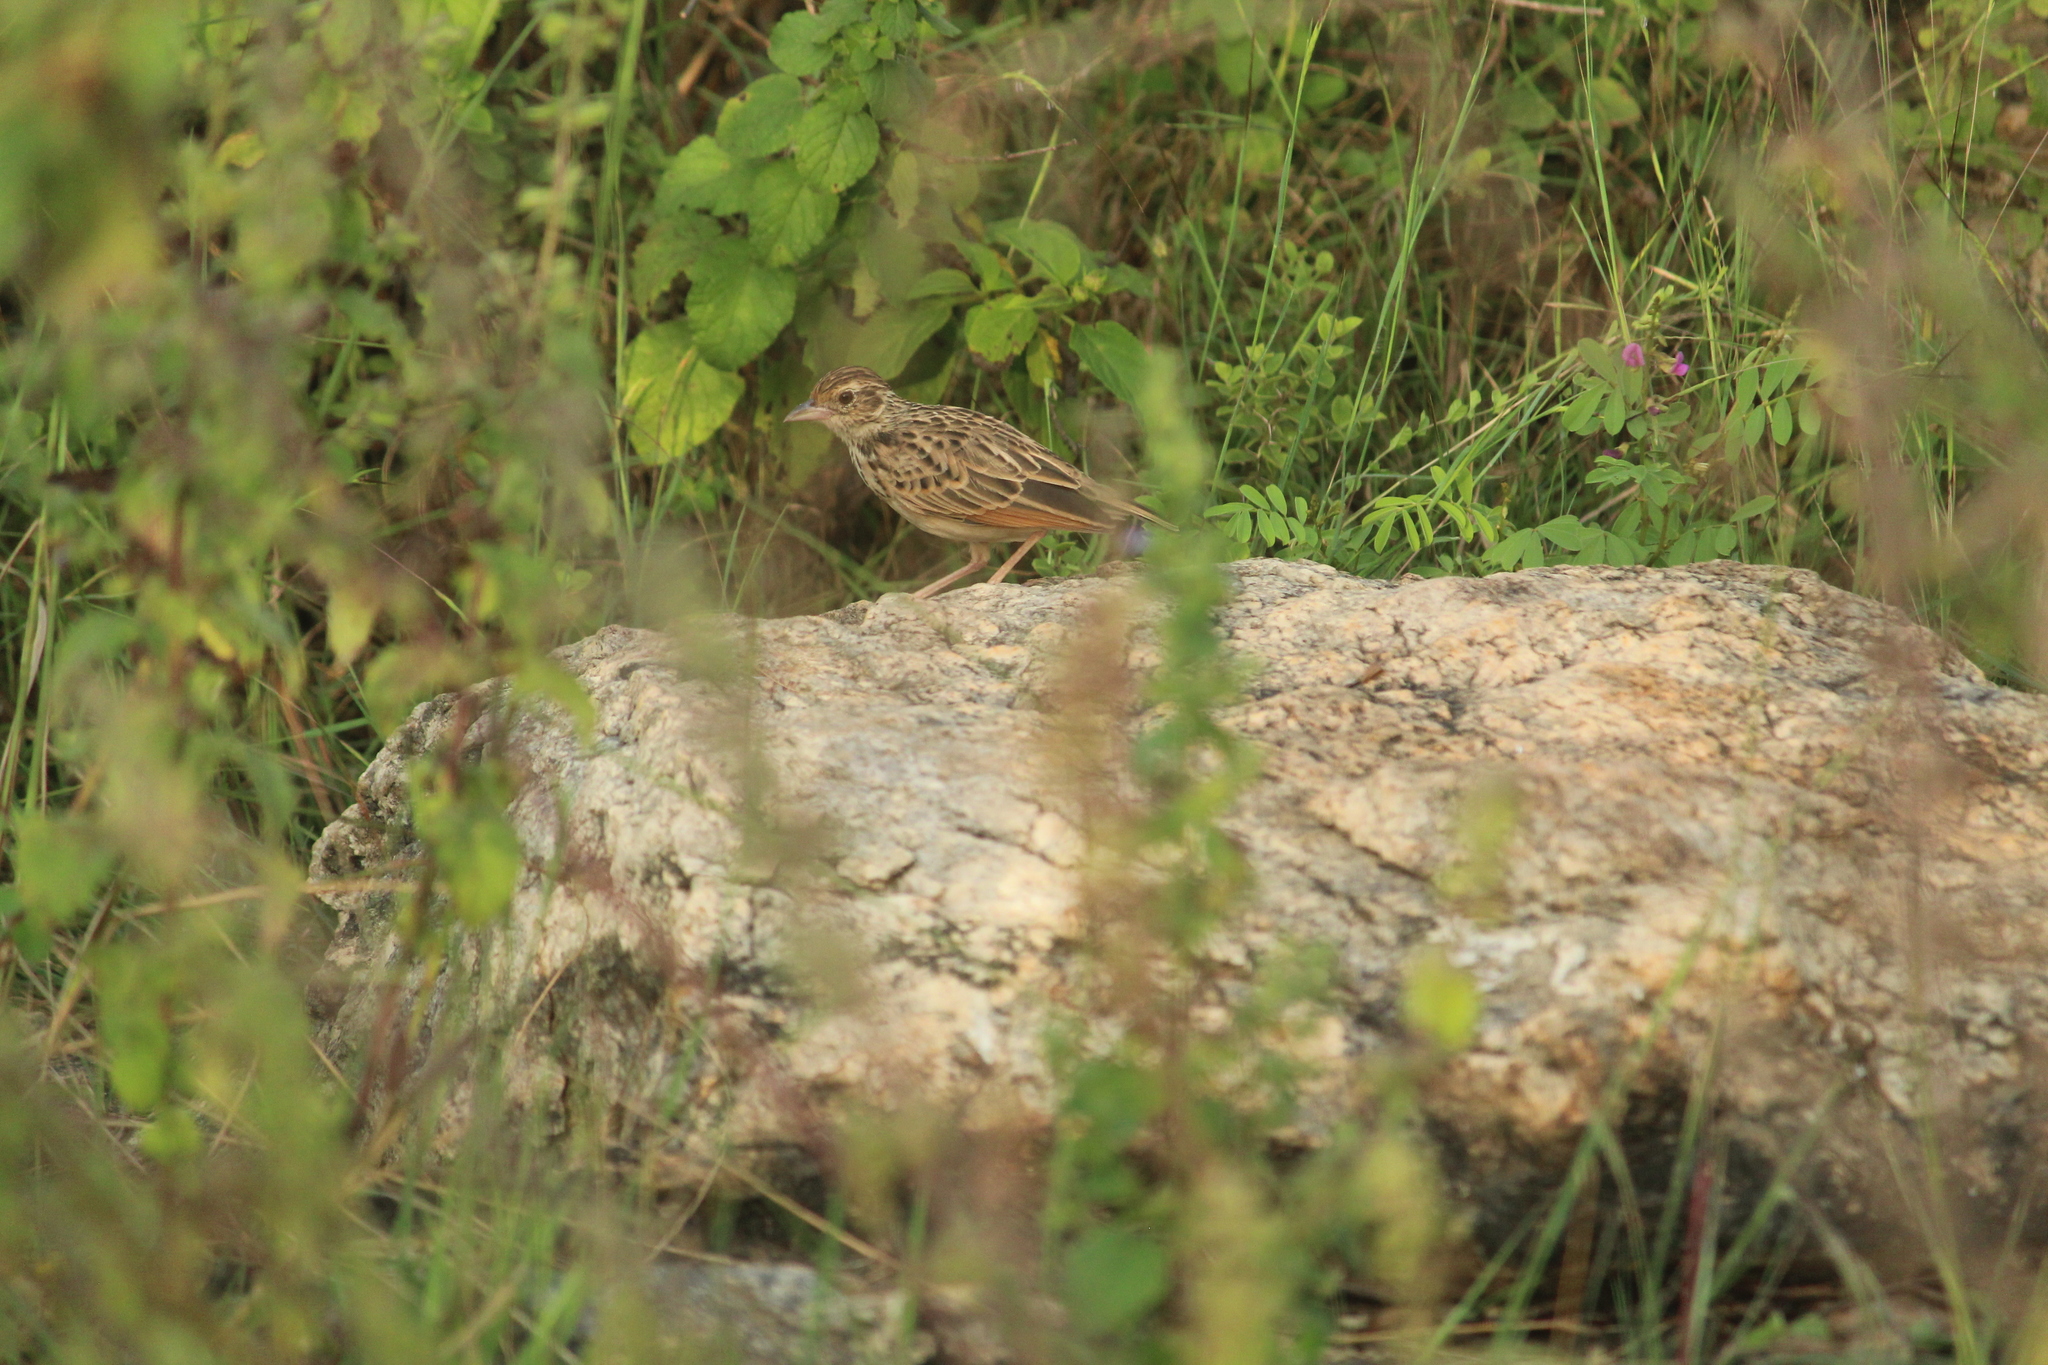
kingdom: Animalia
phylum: Chordata
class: Aves
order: Passeriformes
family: Alaudidae
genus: Mirafra
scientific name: Mirafra affinis
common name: Jerdon's bushlark
